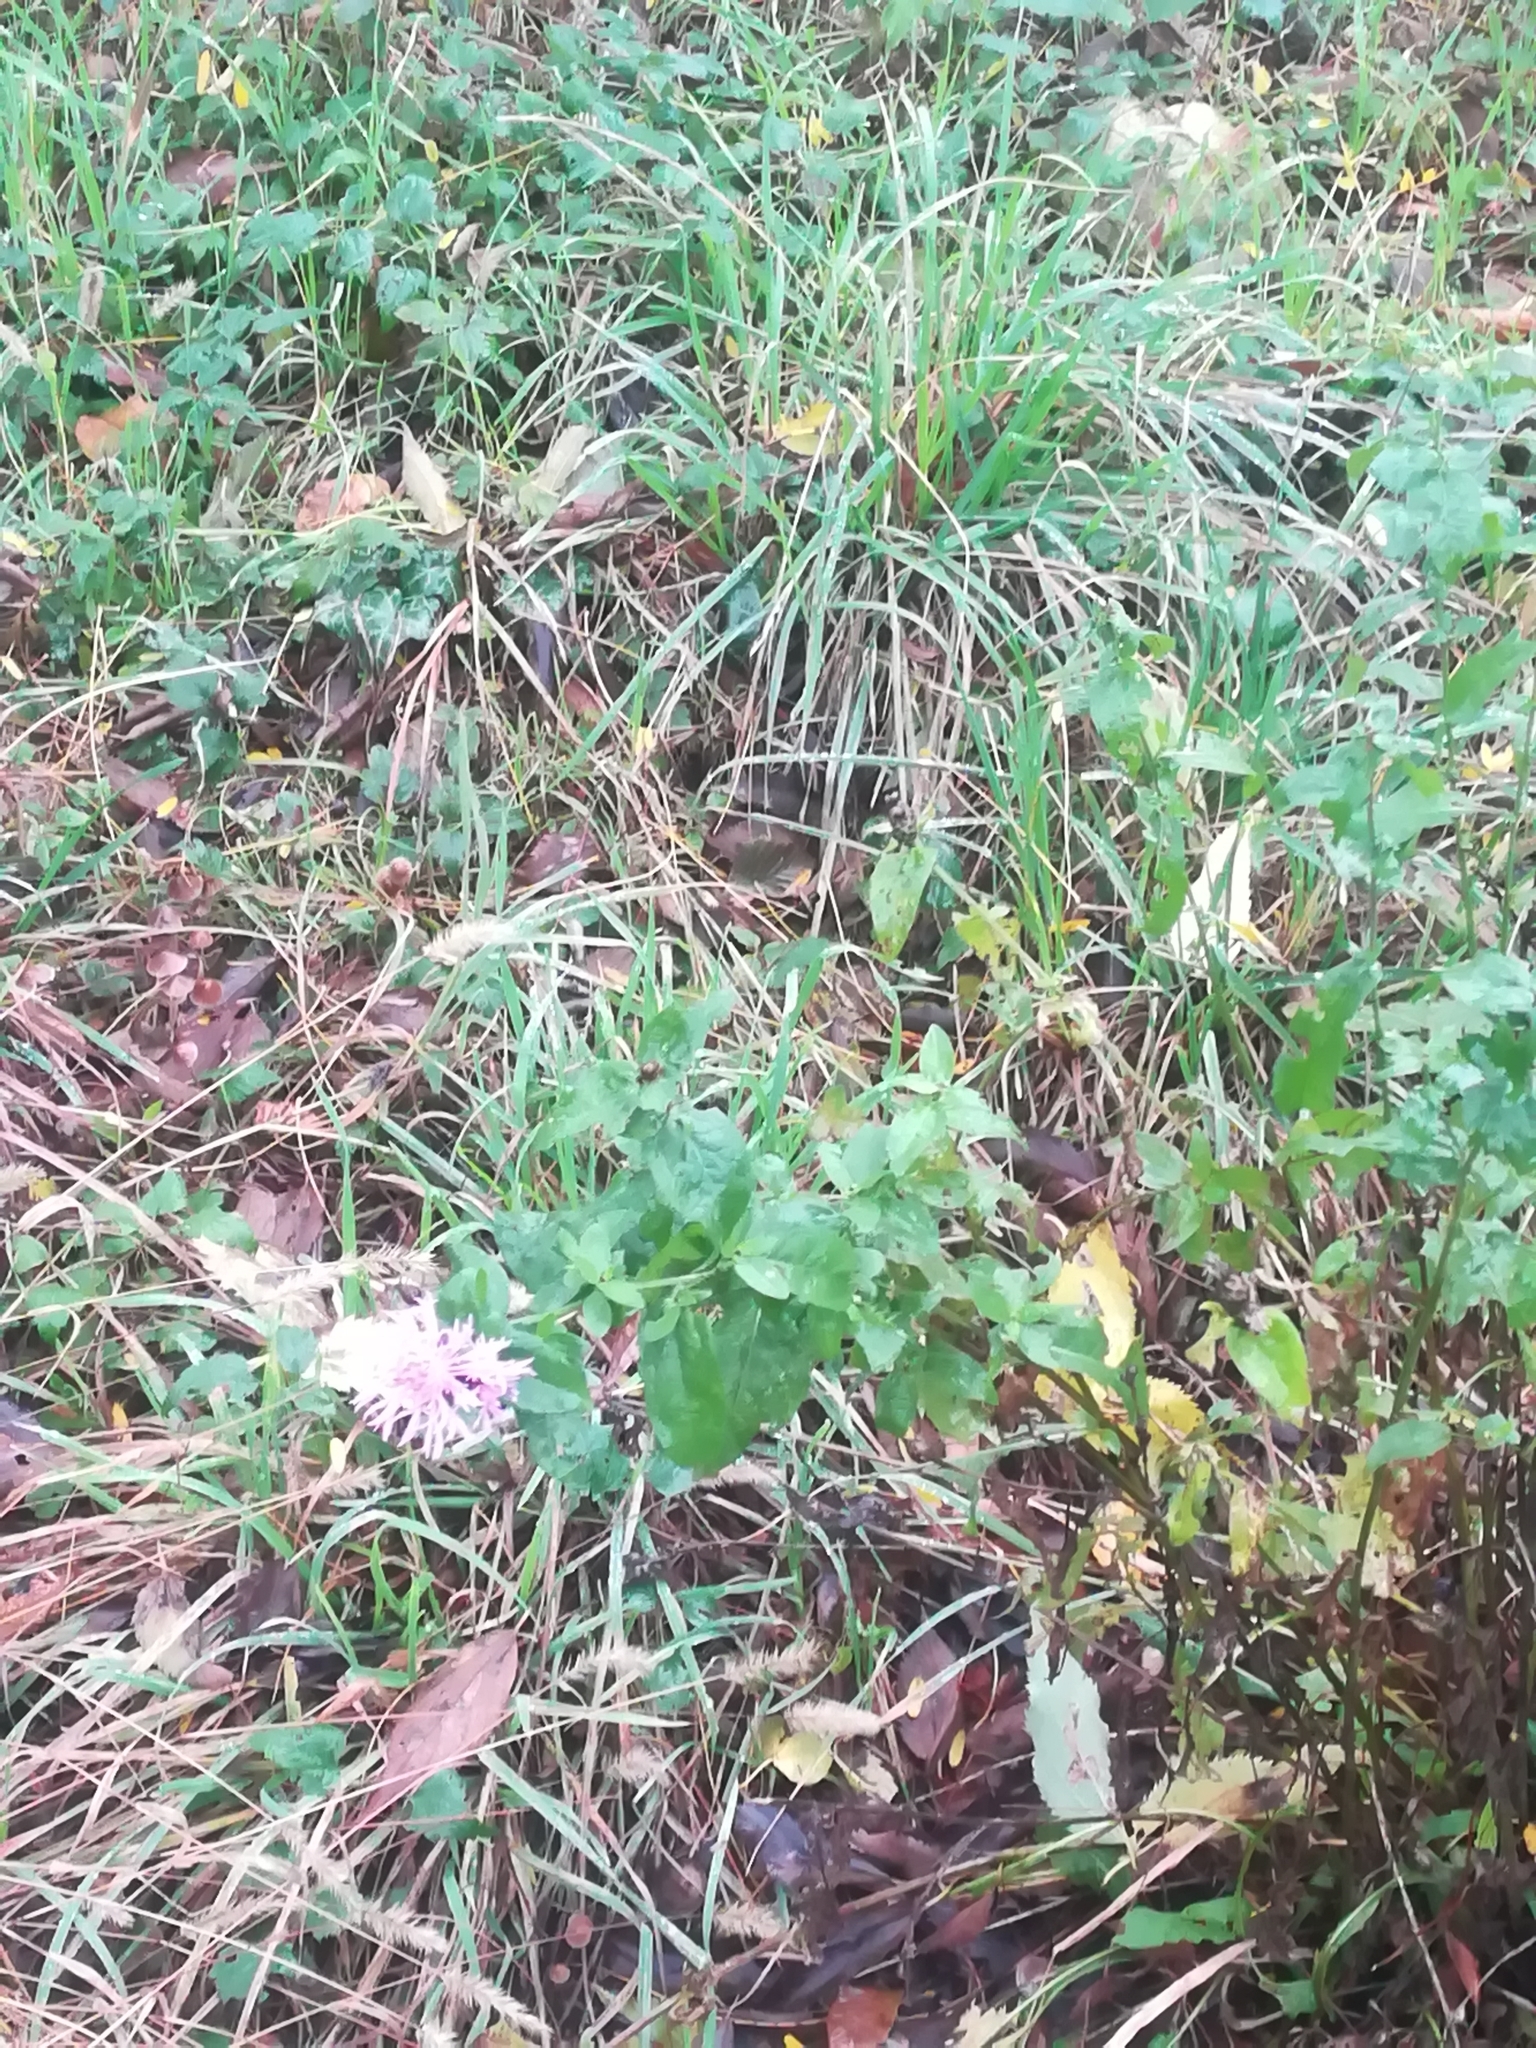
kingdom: Plantae
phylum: Tracheophyta
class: Magnoliopsida
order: Asterales
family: Asteraceae
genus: Centaurea
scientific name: Centaurea nigrescens
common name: Tyrol knapweed
